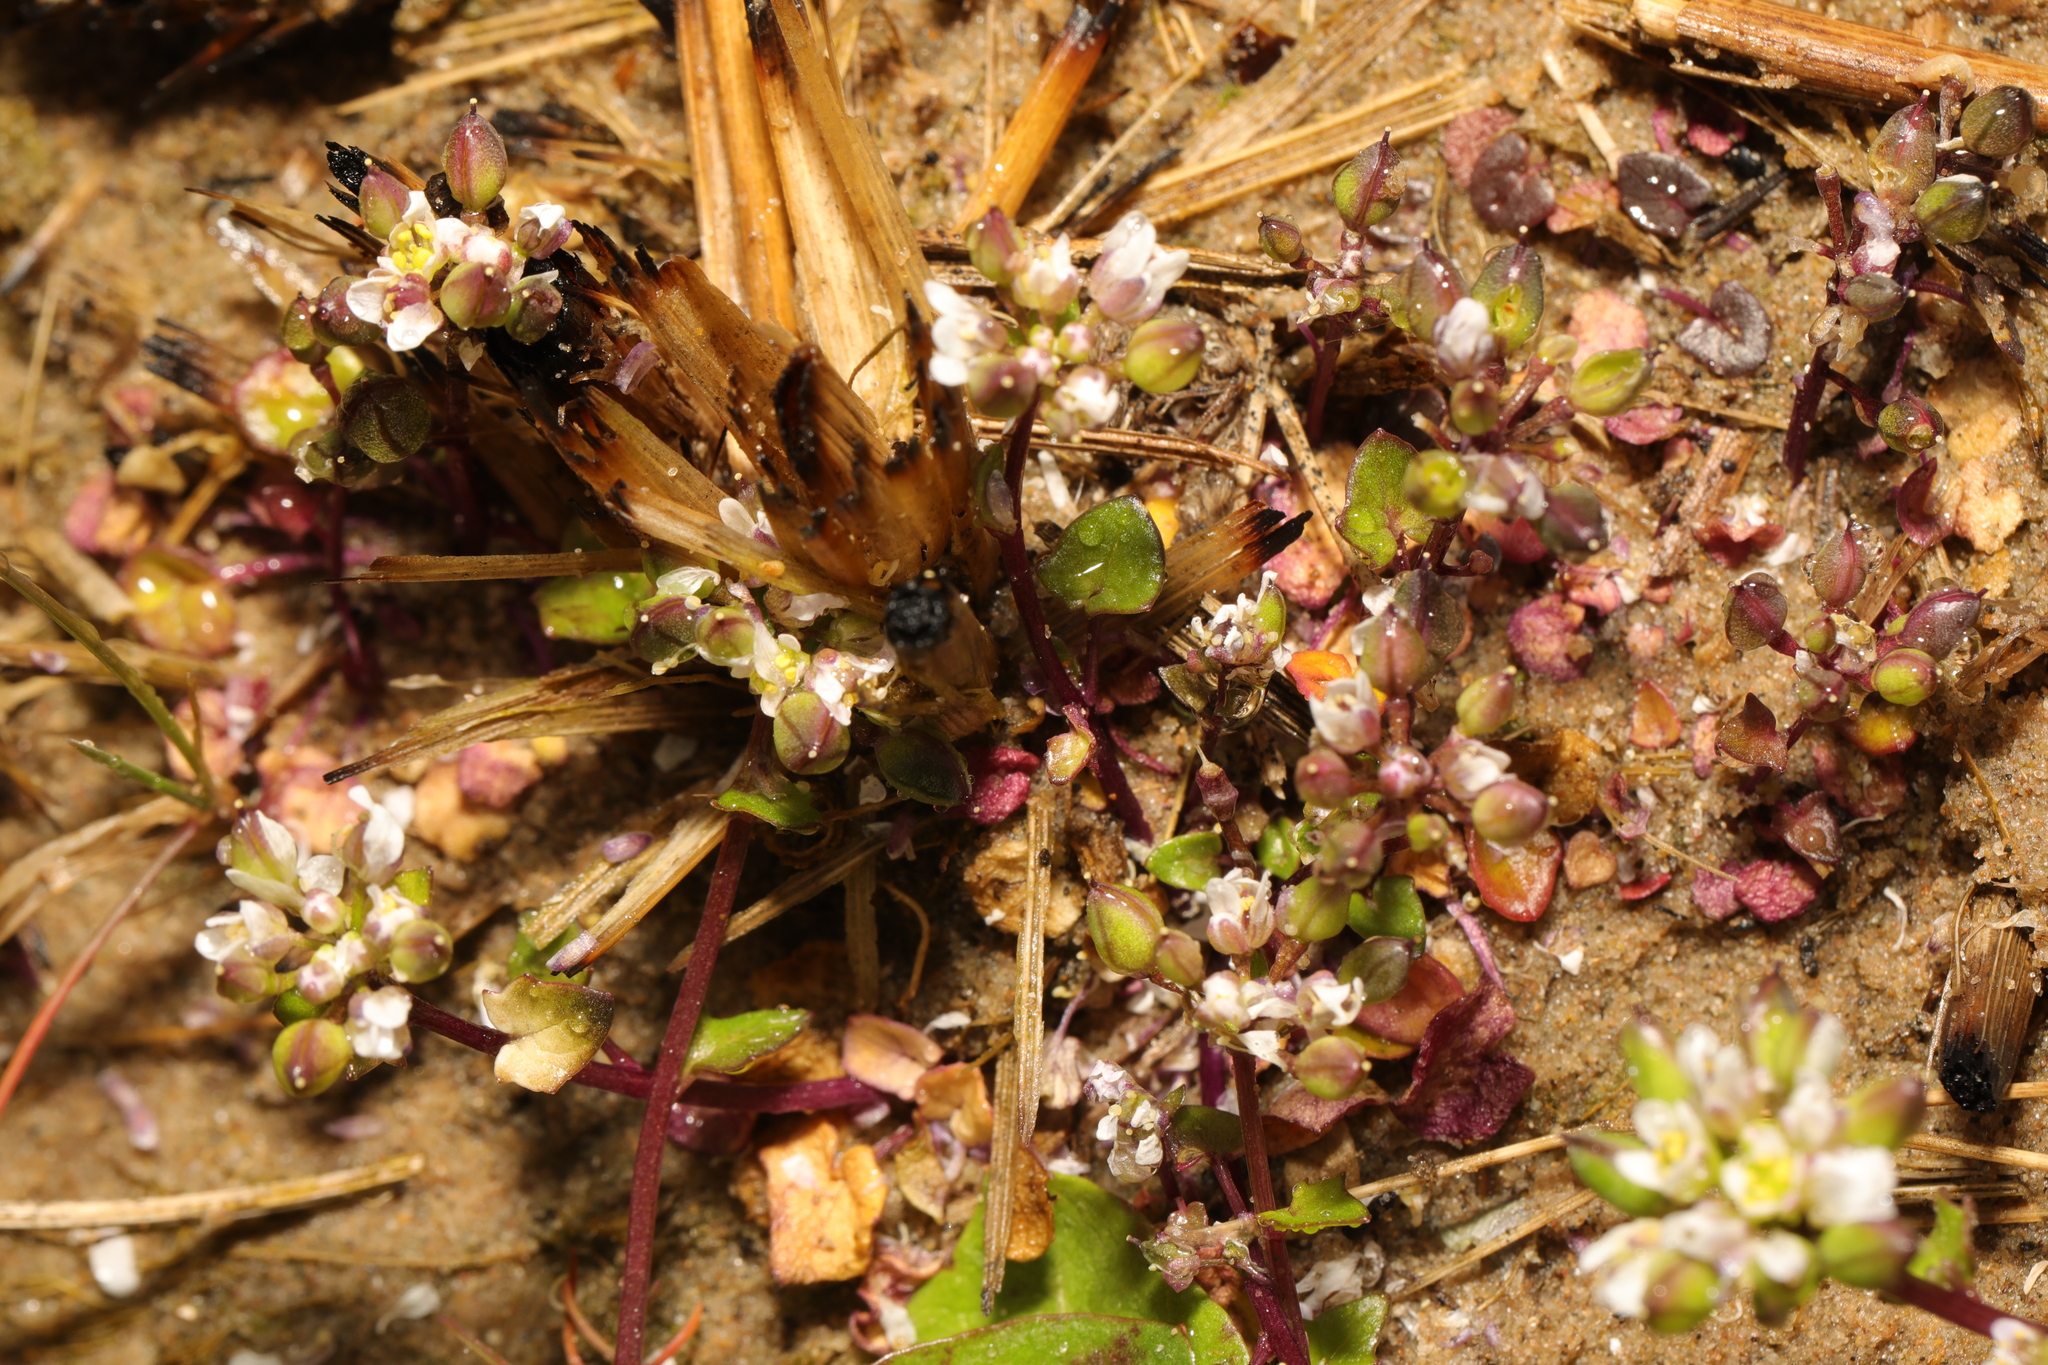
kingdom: Plantae
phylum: Tracheophyta
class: Magnoliopsida
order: Brassicales
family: Brassicaceae
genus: Cochlearia
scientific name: Cochlearia danica
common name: Early scurvygrass
